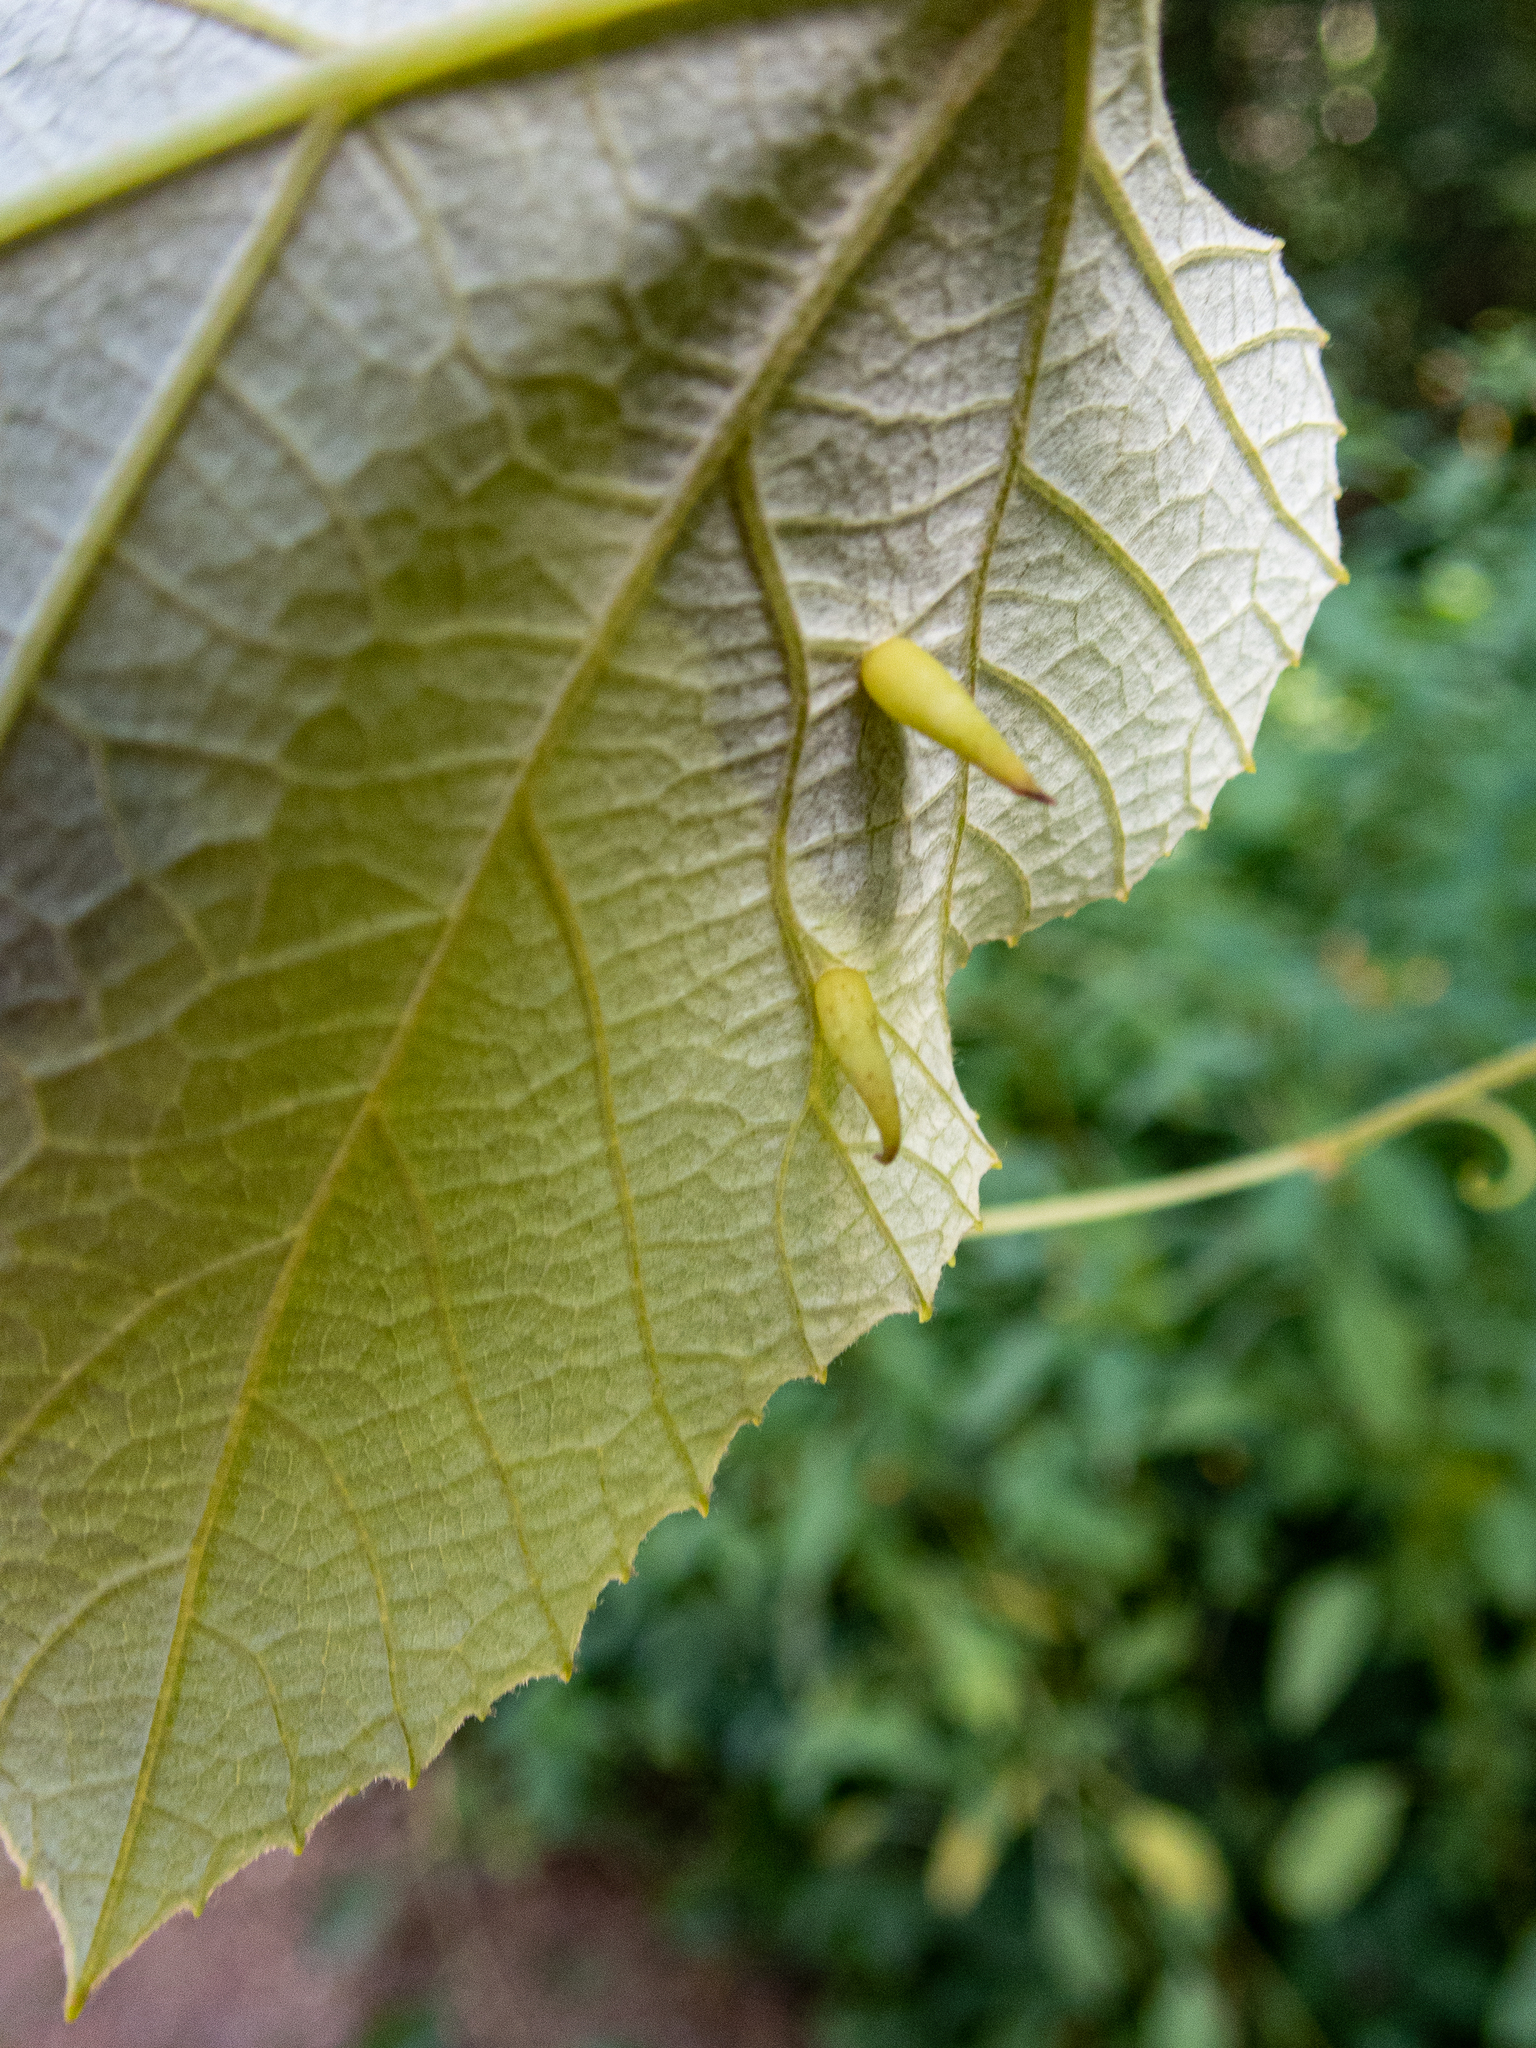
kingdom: Animalia
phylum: Arthropoda
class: Insecta
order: Diptera
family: Cecidomyiidae
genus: Ampelomyia
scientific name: Ampelomyia viticola
